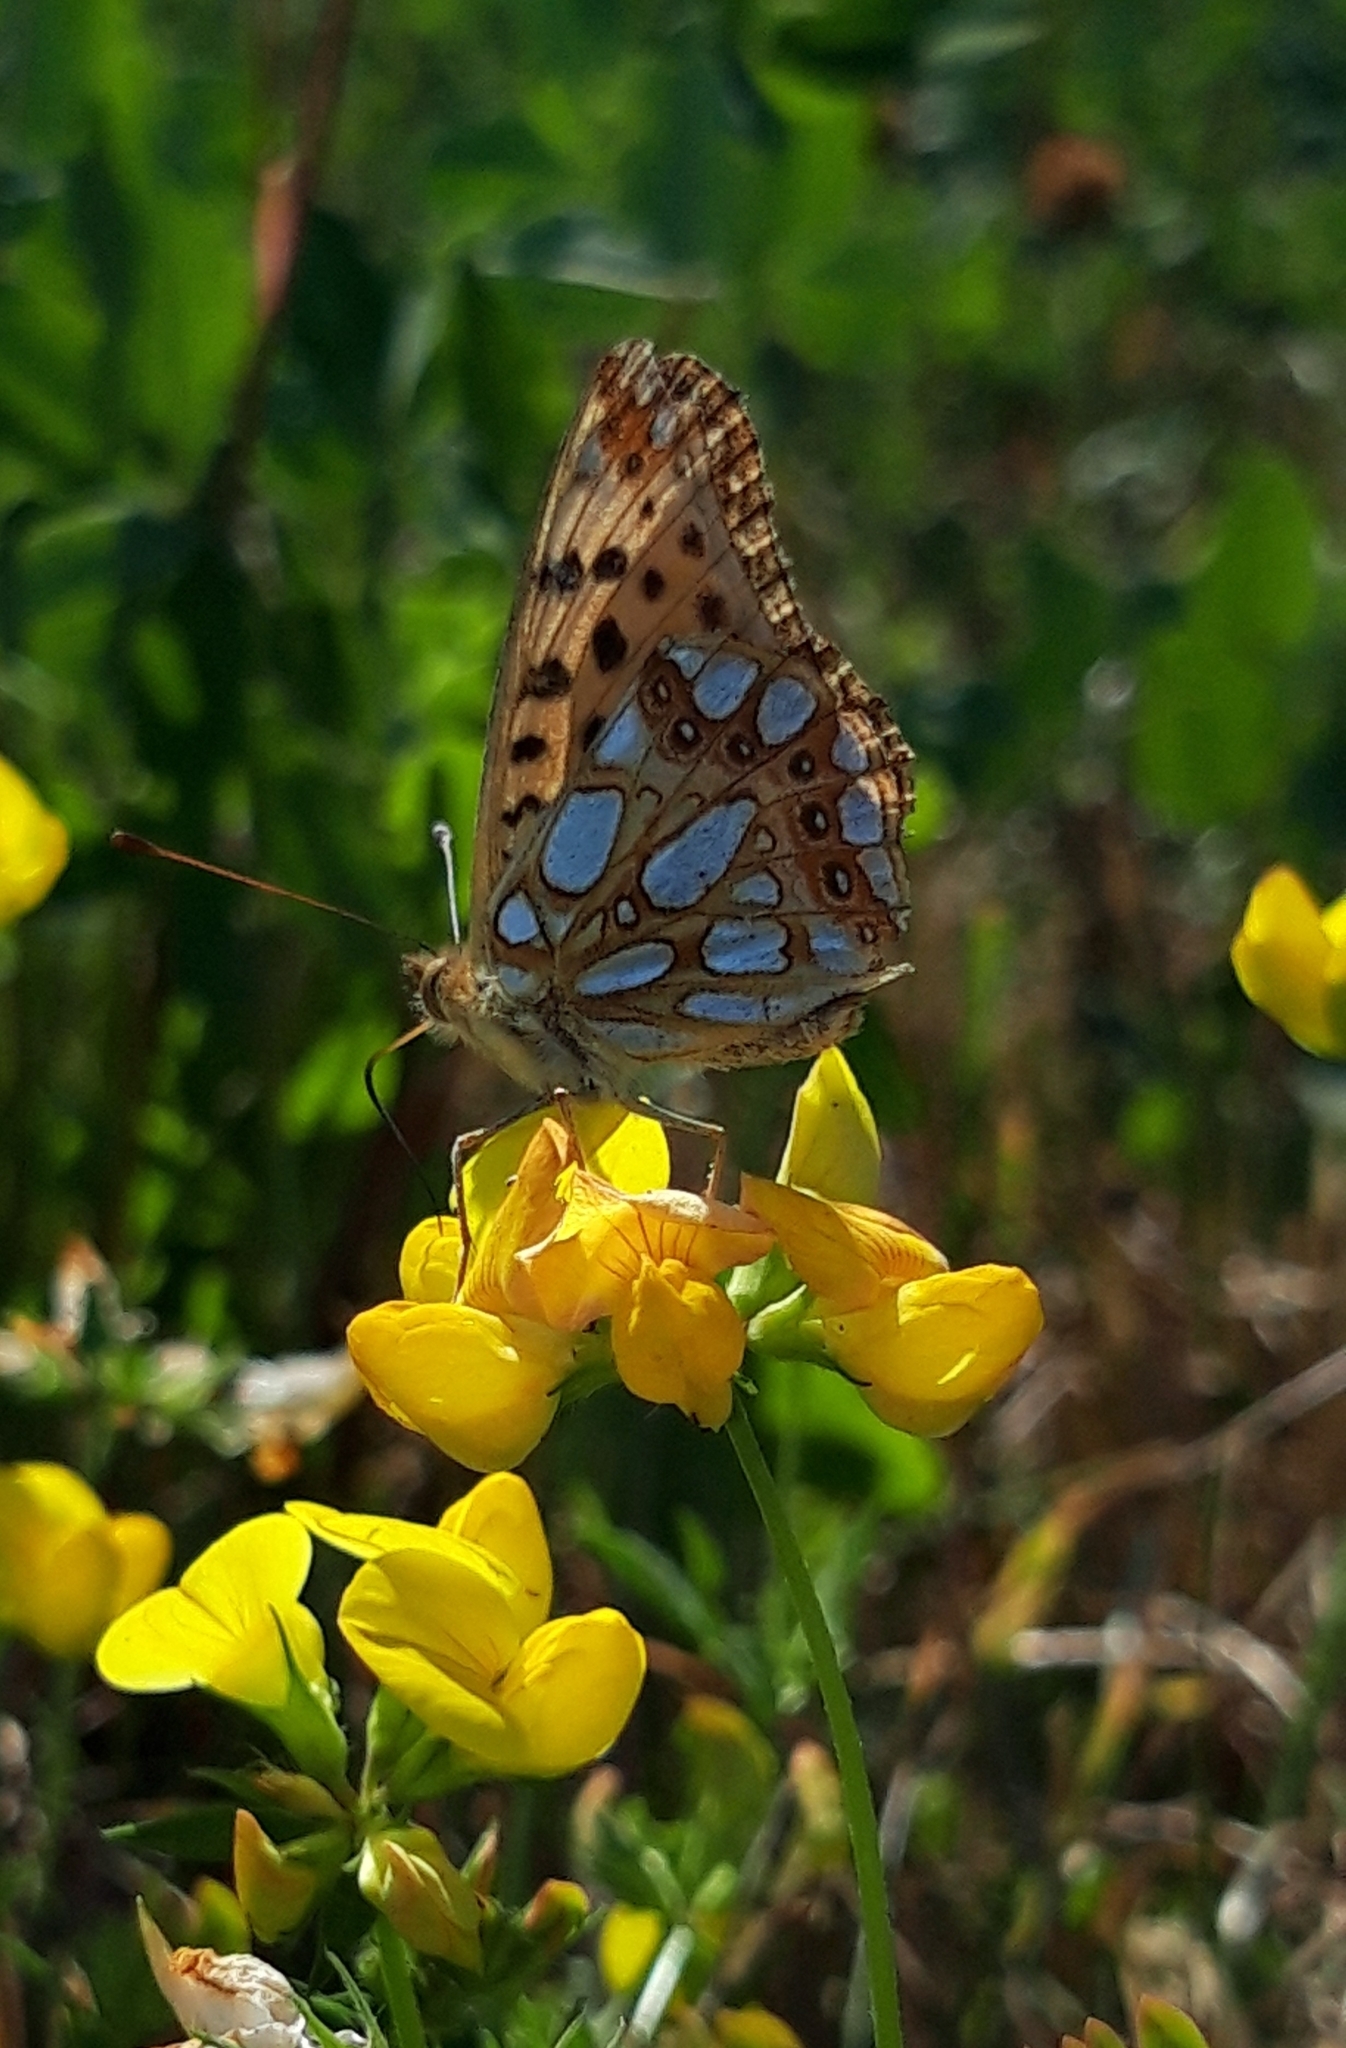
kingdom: Animalia
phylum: Arthropoda
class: Insecta
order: Lepidoptera
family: Nymphalidae
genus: Issoria
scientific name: Issoria lathonia
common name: Queen of spain fritillary
